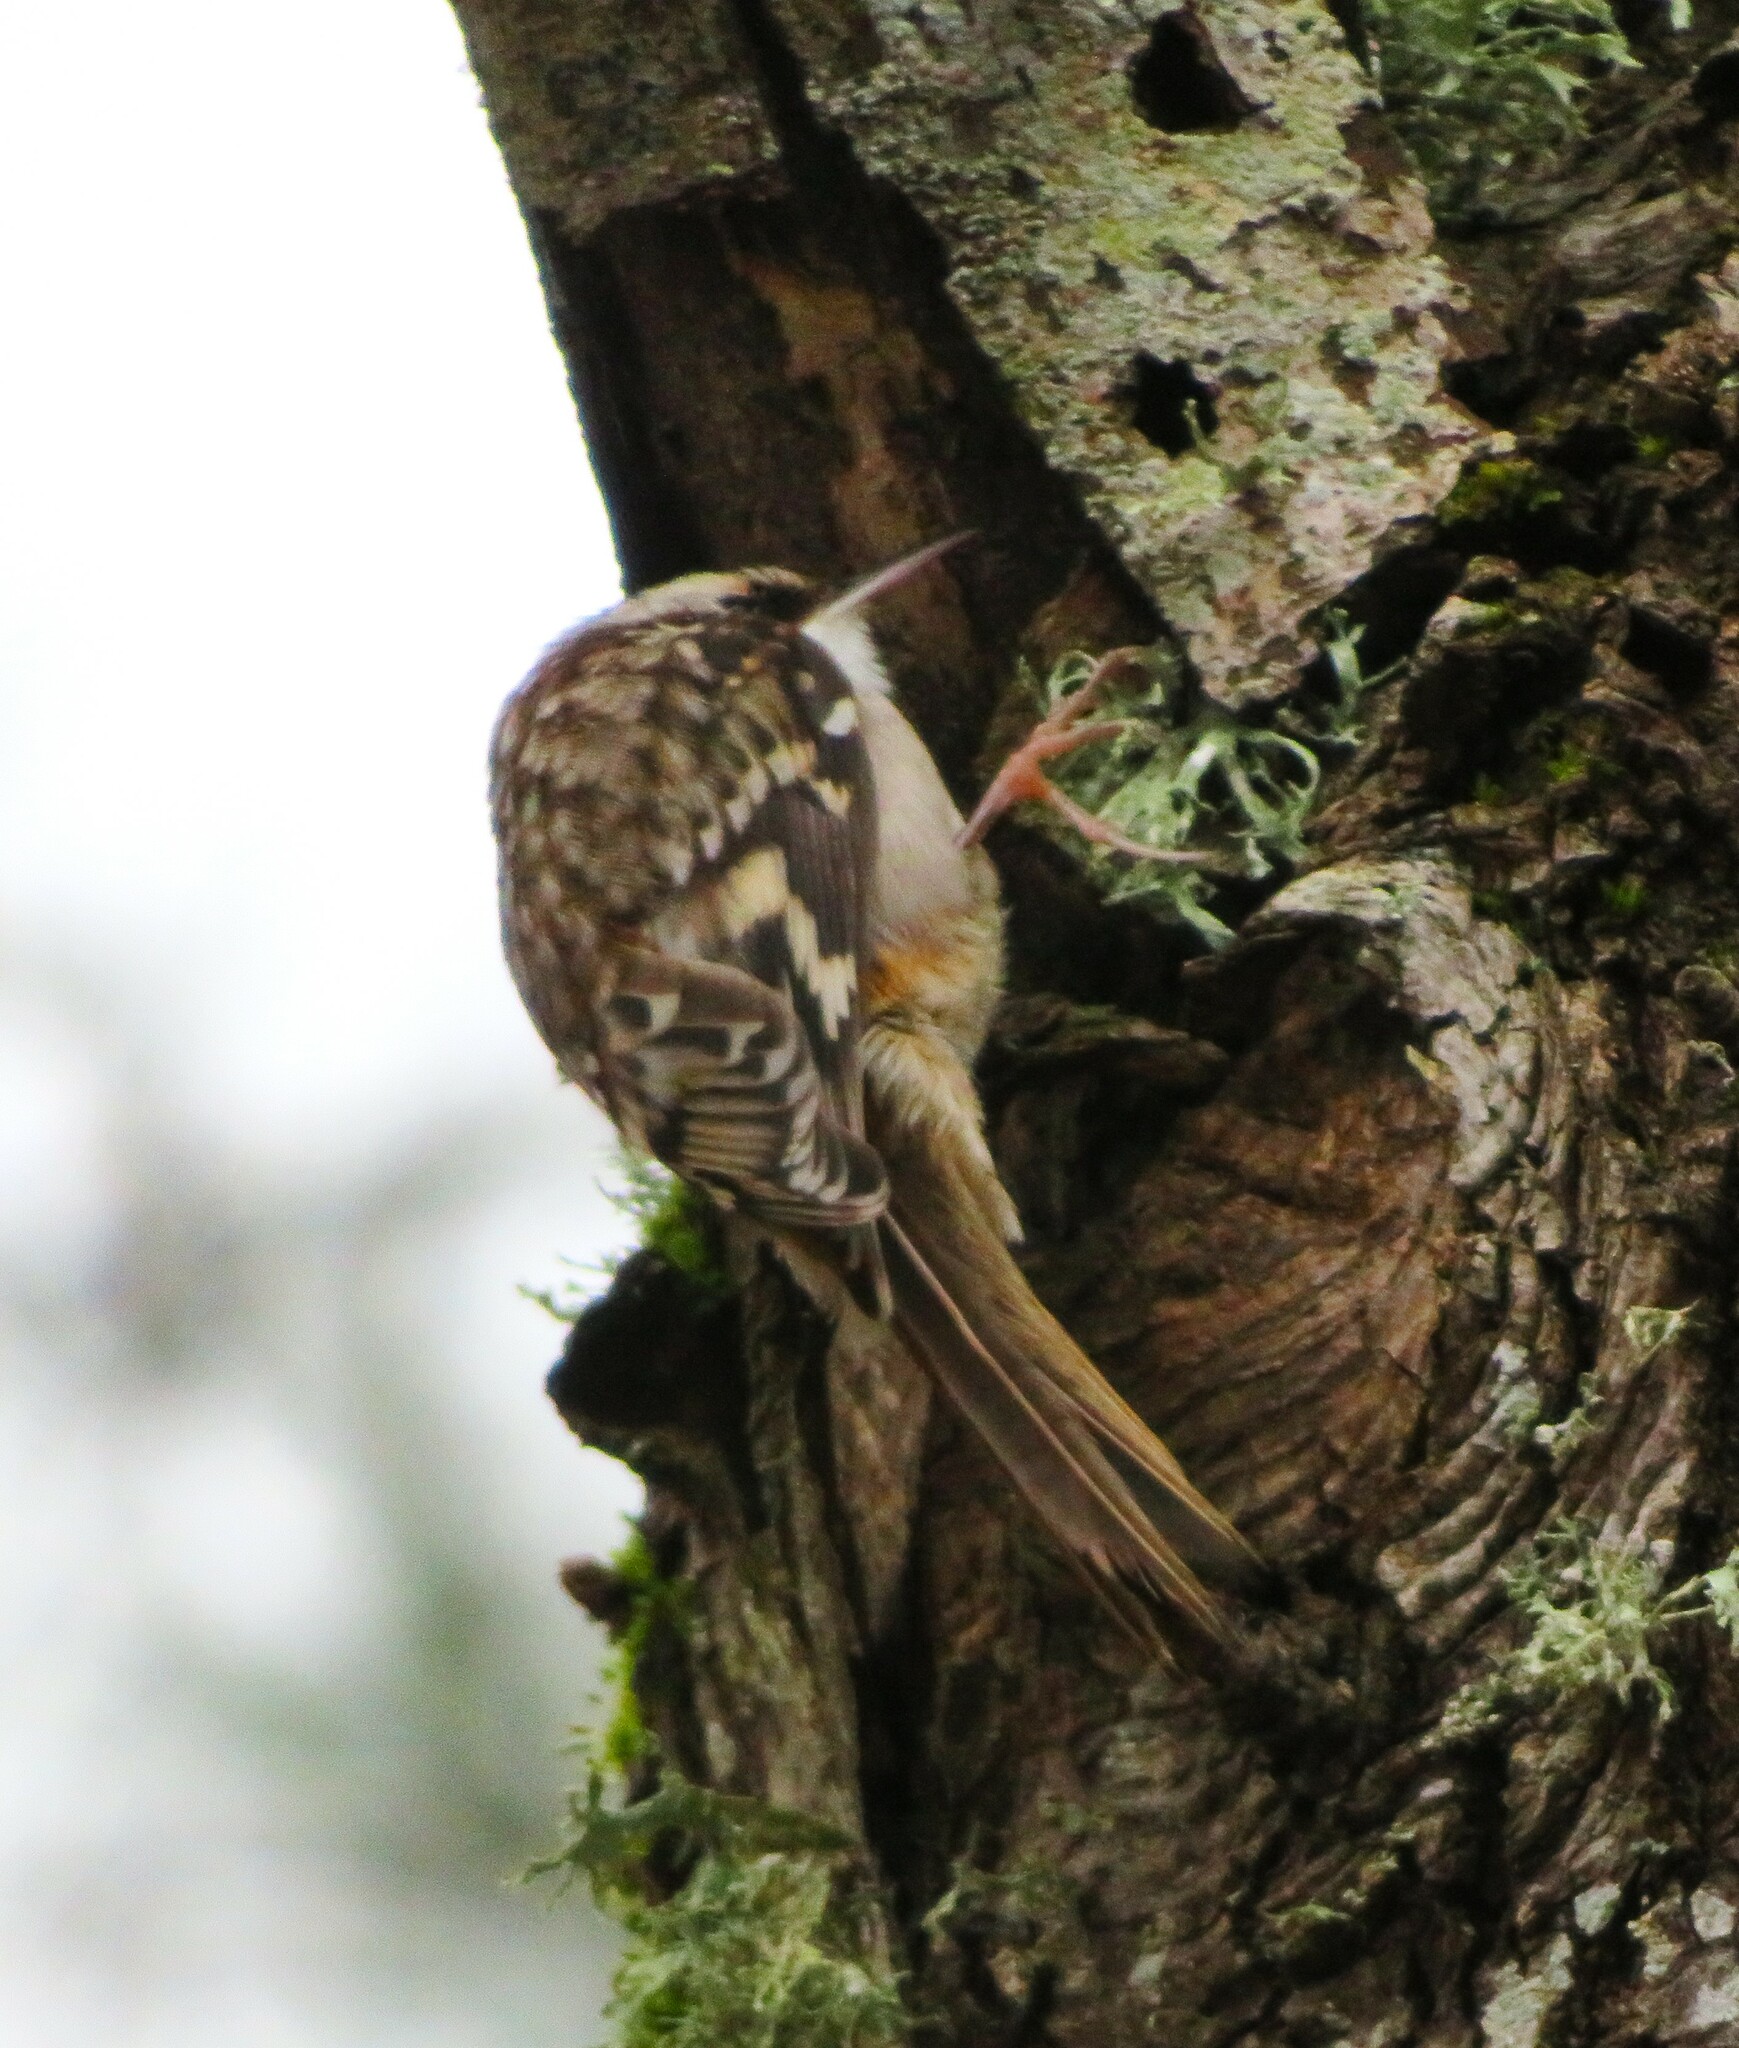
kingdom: Animalia
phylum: Chordata
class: Aves
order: Passeriformes
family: Certhiidae
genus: Certhia
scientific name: Certhia americana
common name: Brown creeper
